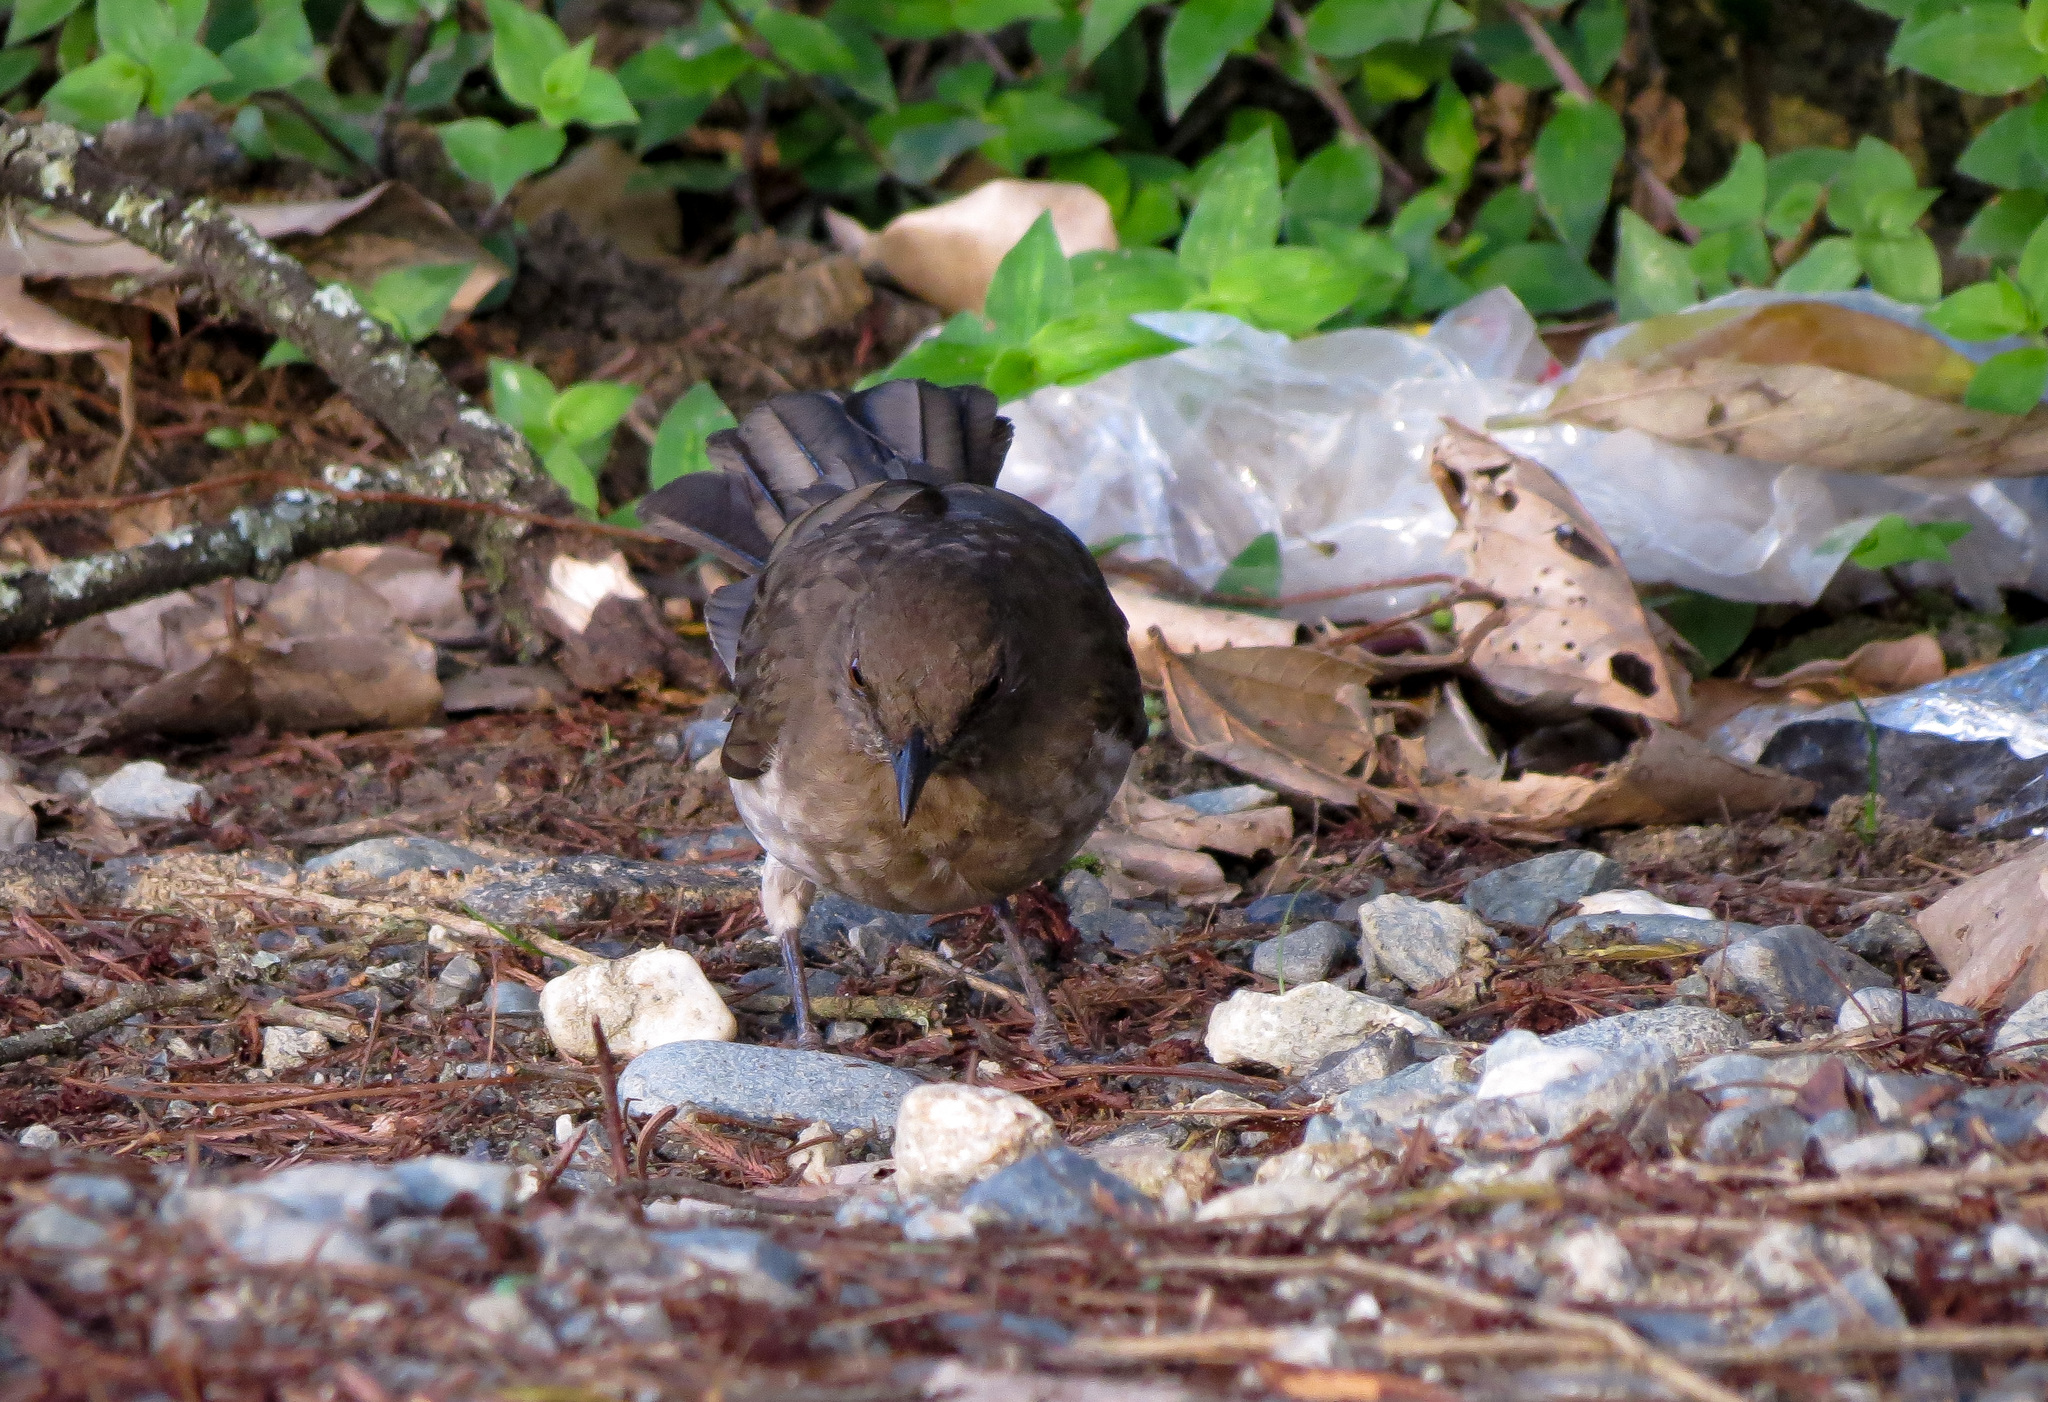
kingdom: Animalia
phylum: Chordata
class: Aves
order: Passeriformes
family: Turdidae
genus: Turdus
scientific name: Turdus ignobilis
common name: Black-billed thrush
